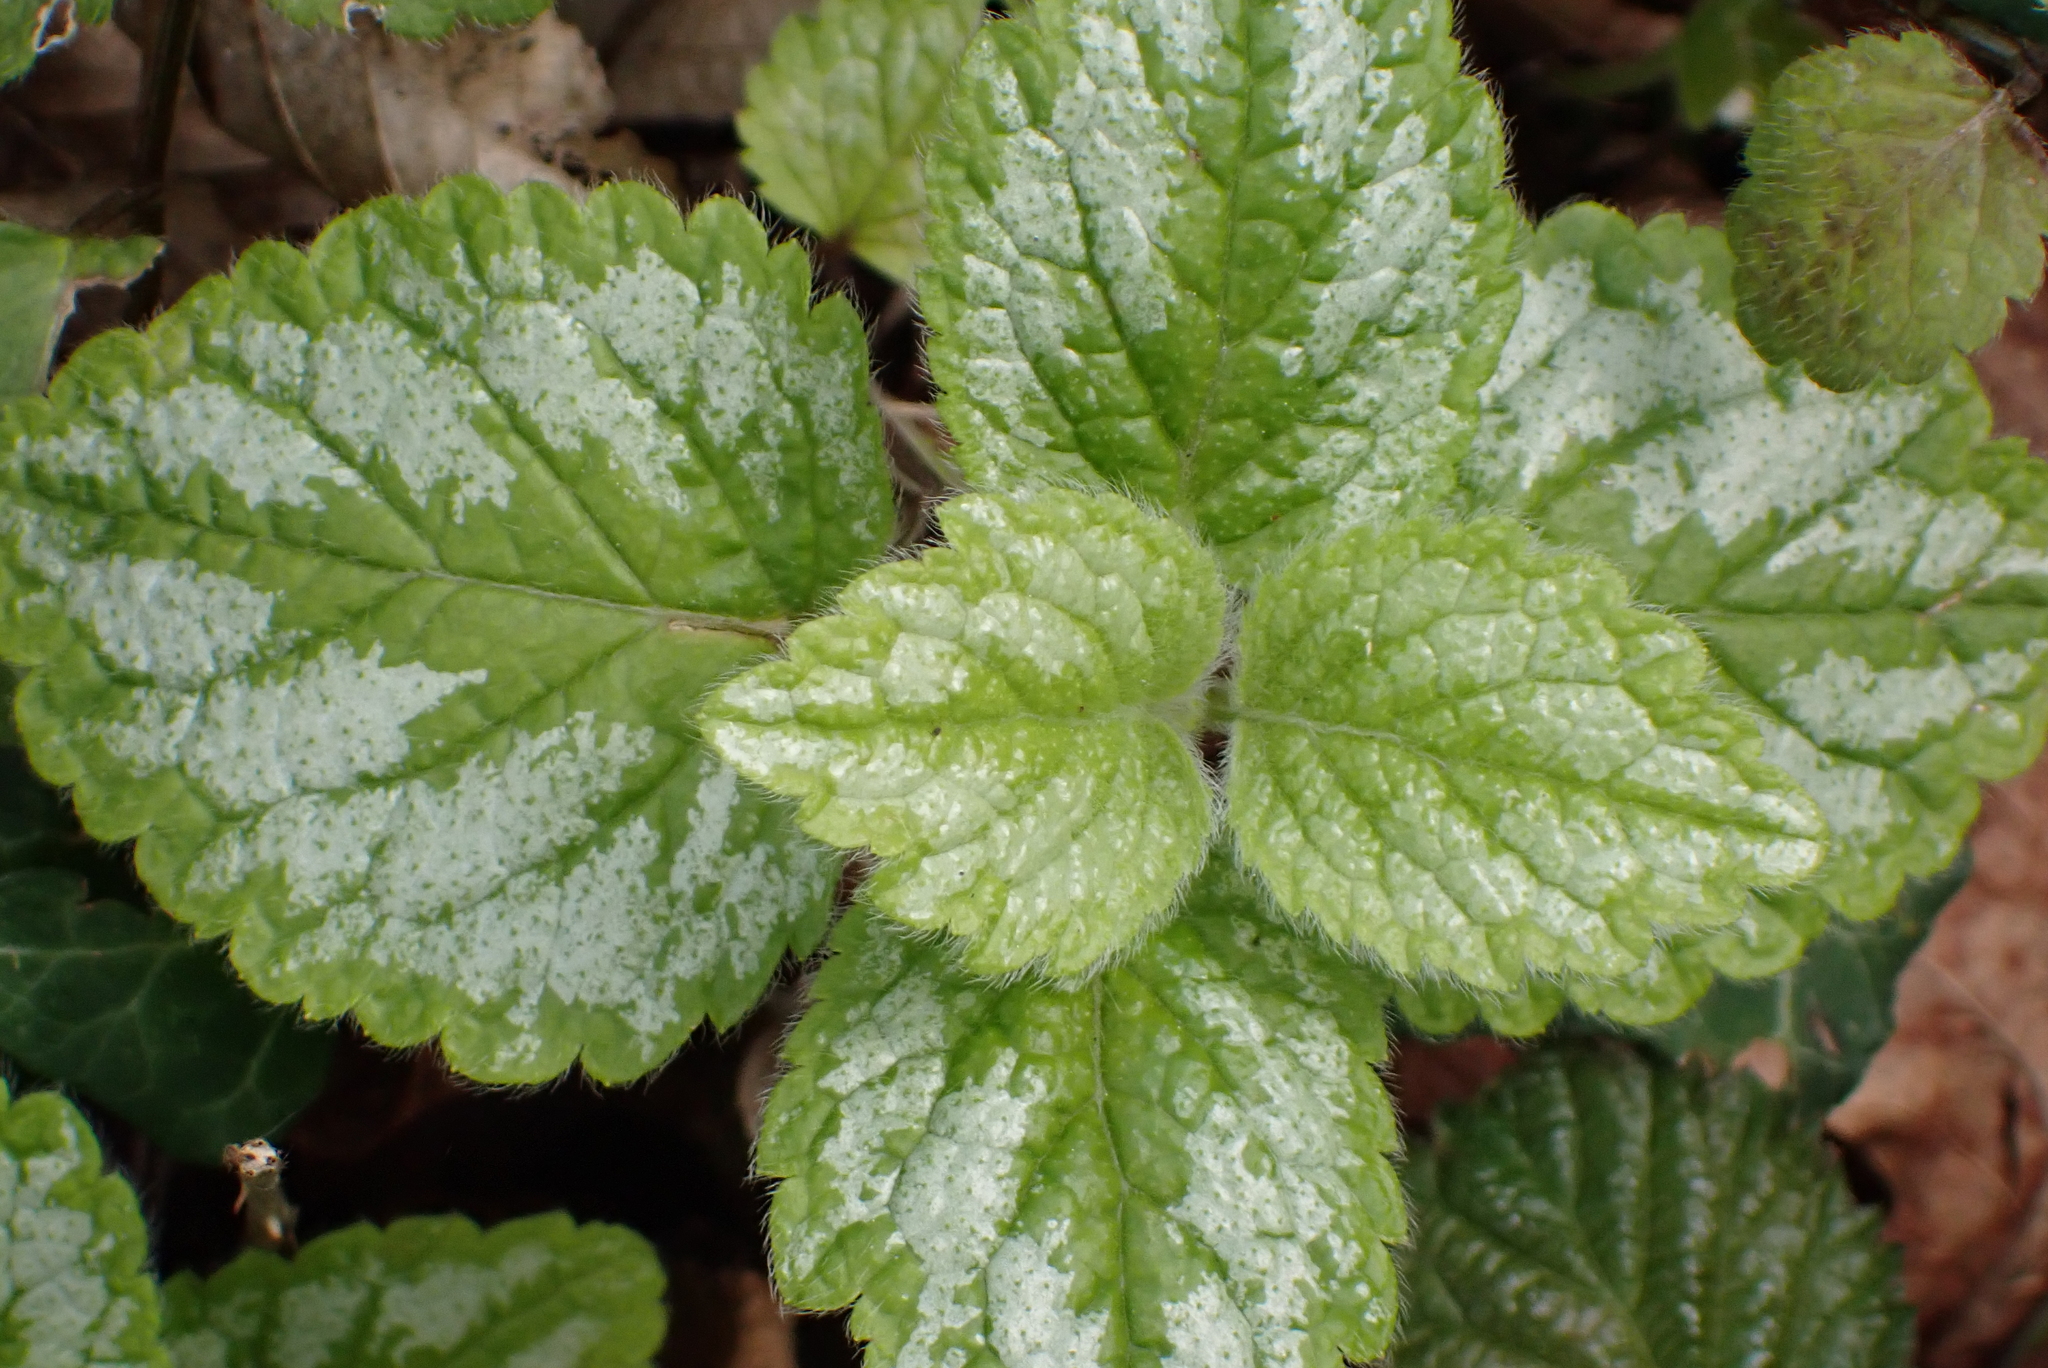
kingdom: Plantae
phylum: Tracheophyta
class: Magnoliopsida
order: Lamiales
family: Lamiaceae
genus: Lamium
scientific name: Lamium galeobdolon
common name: Yellow archangel
